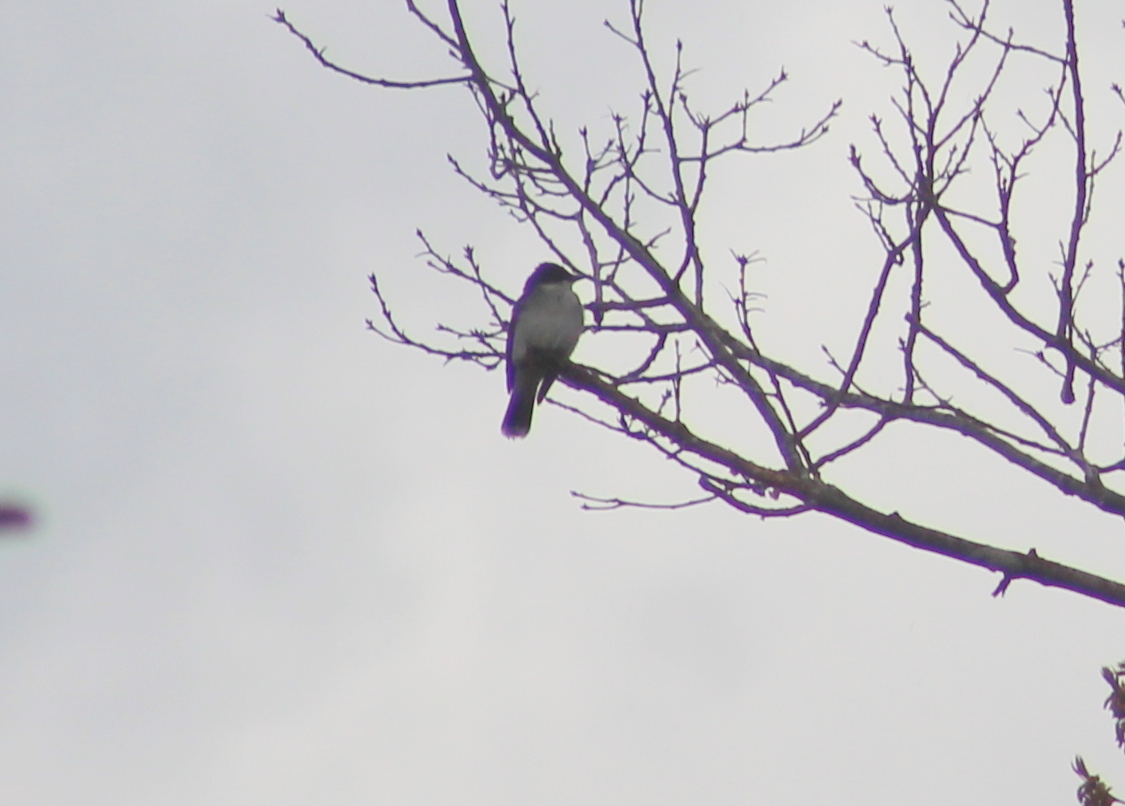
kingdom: Animalia
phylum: Chordata
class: Aves
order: Passeriformes
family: Tyrannidae
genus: Tyrannus
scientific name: Tyrannus tyrannus
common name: Eastern kingbird
